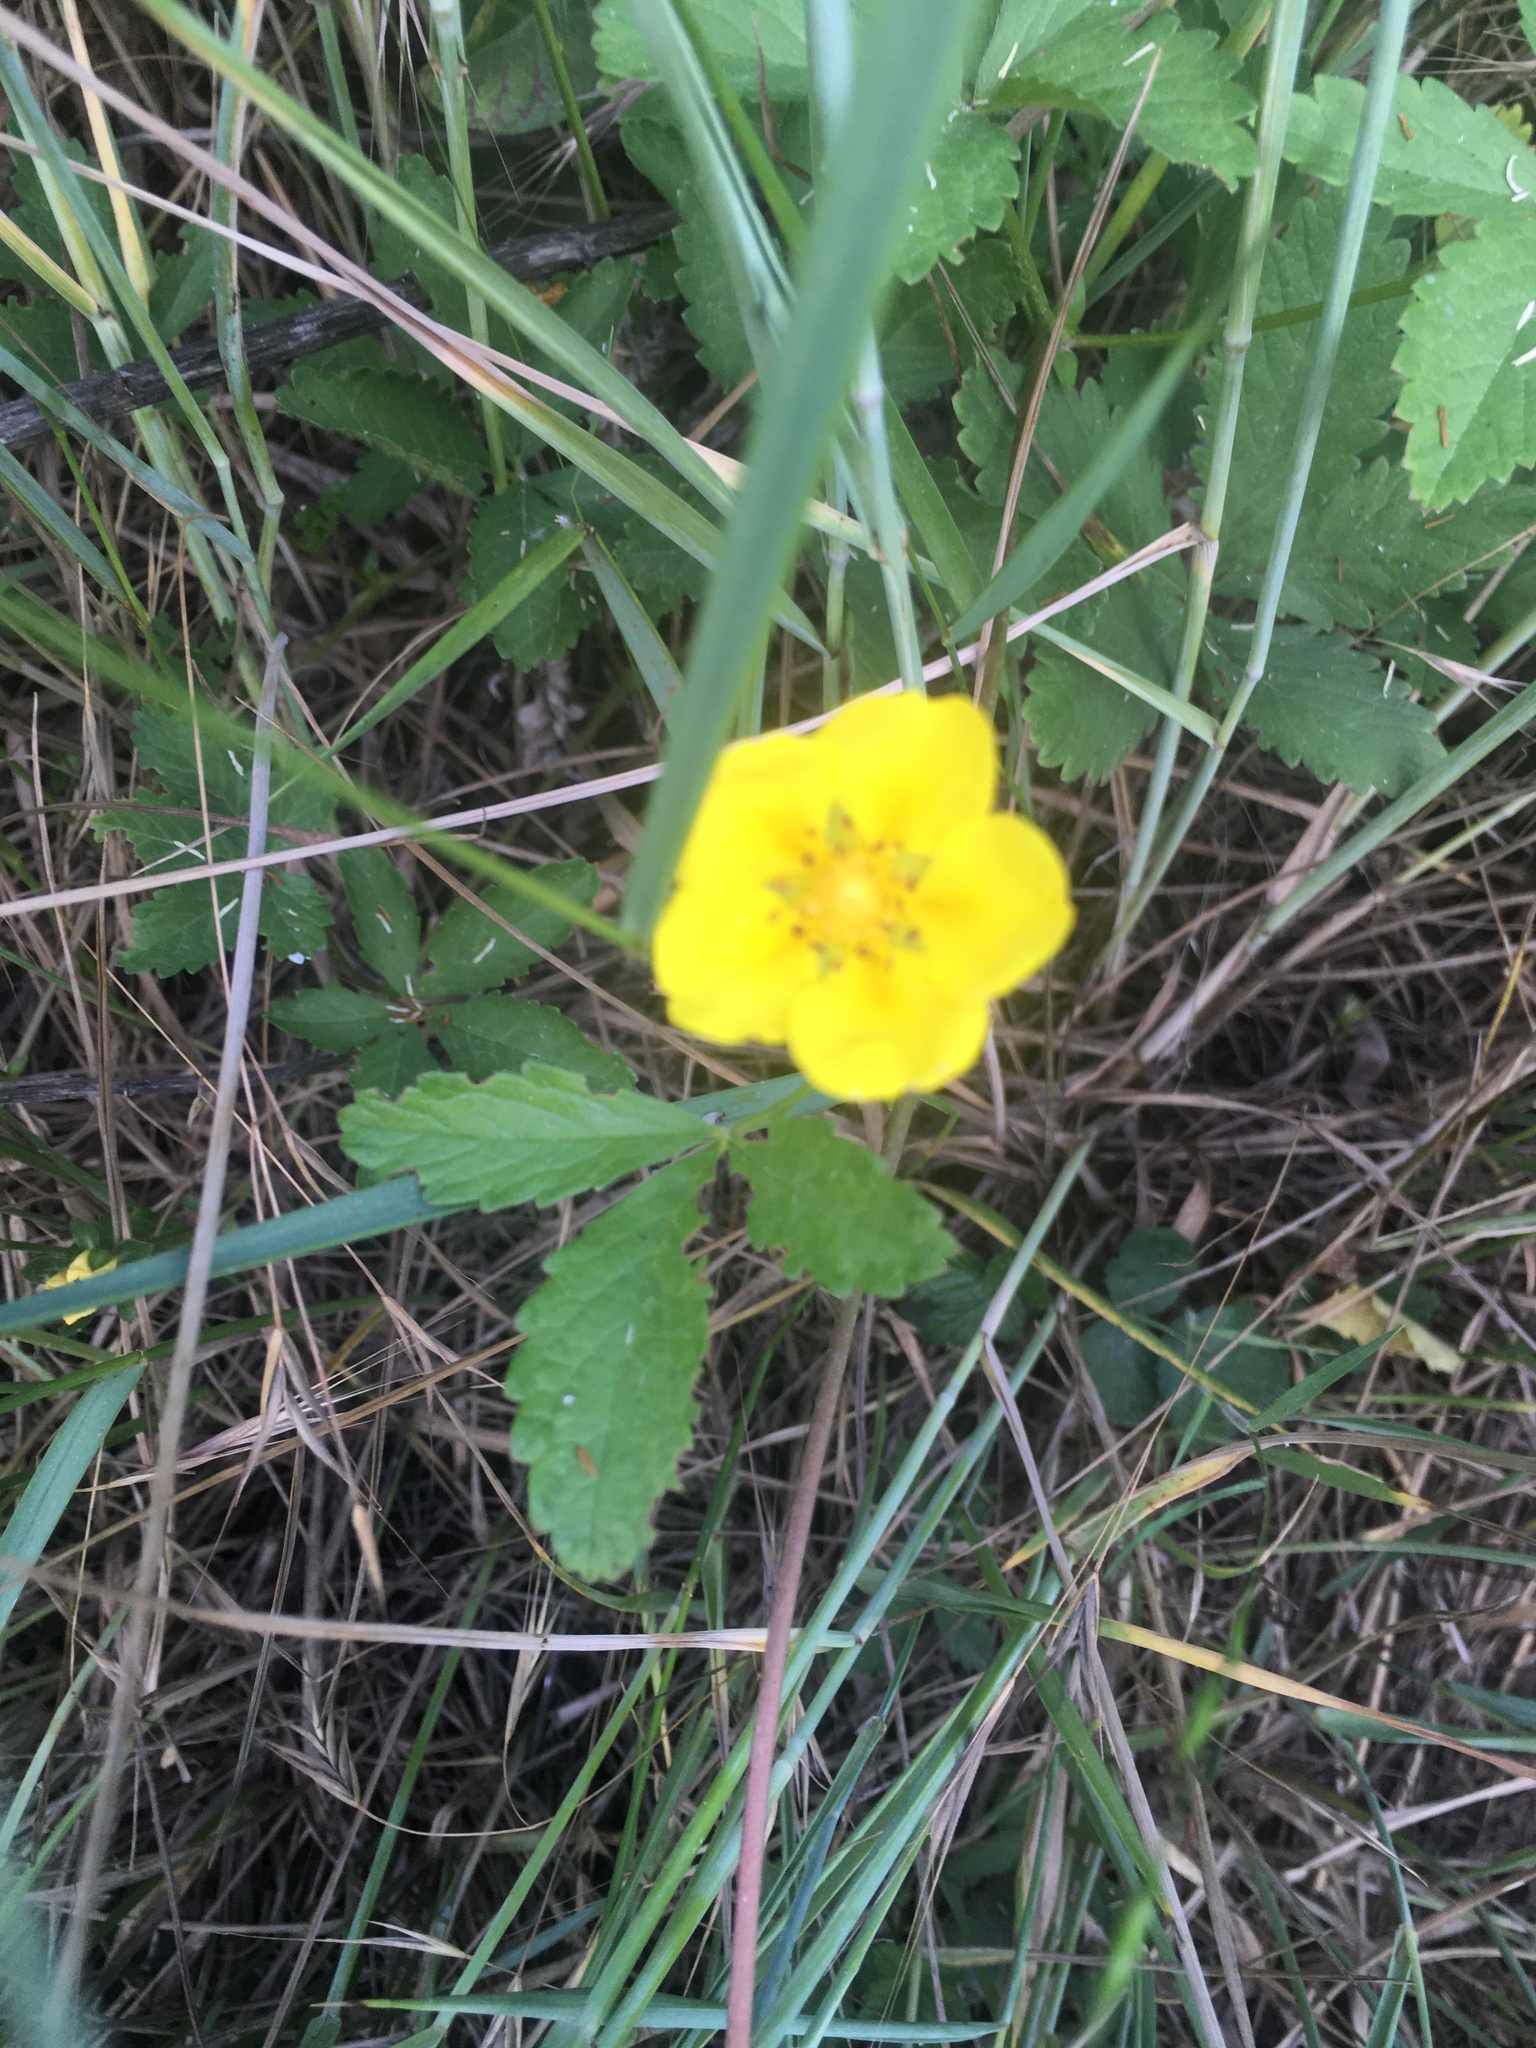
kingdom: Plantae
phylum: Tracheophyta
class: Magnoliopsida
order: Rosales
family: Rosaceae
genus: Potentilla
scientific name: Potentilla reptans
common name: Creeping cinquefoil
